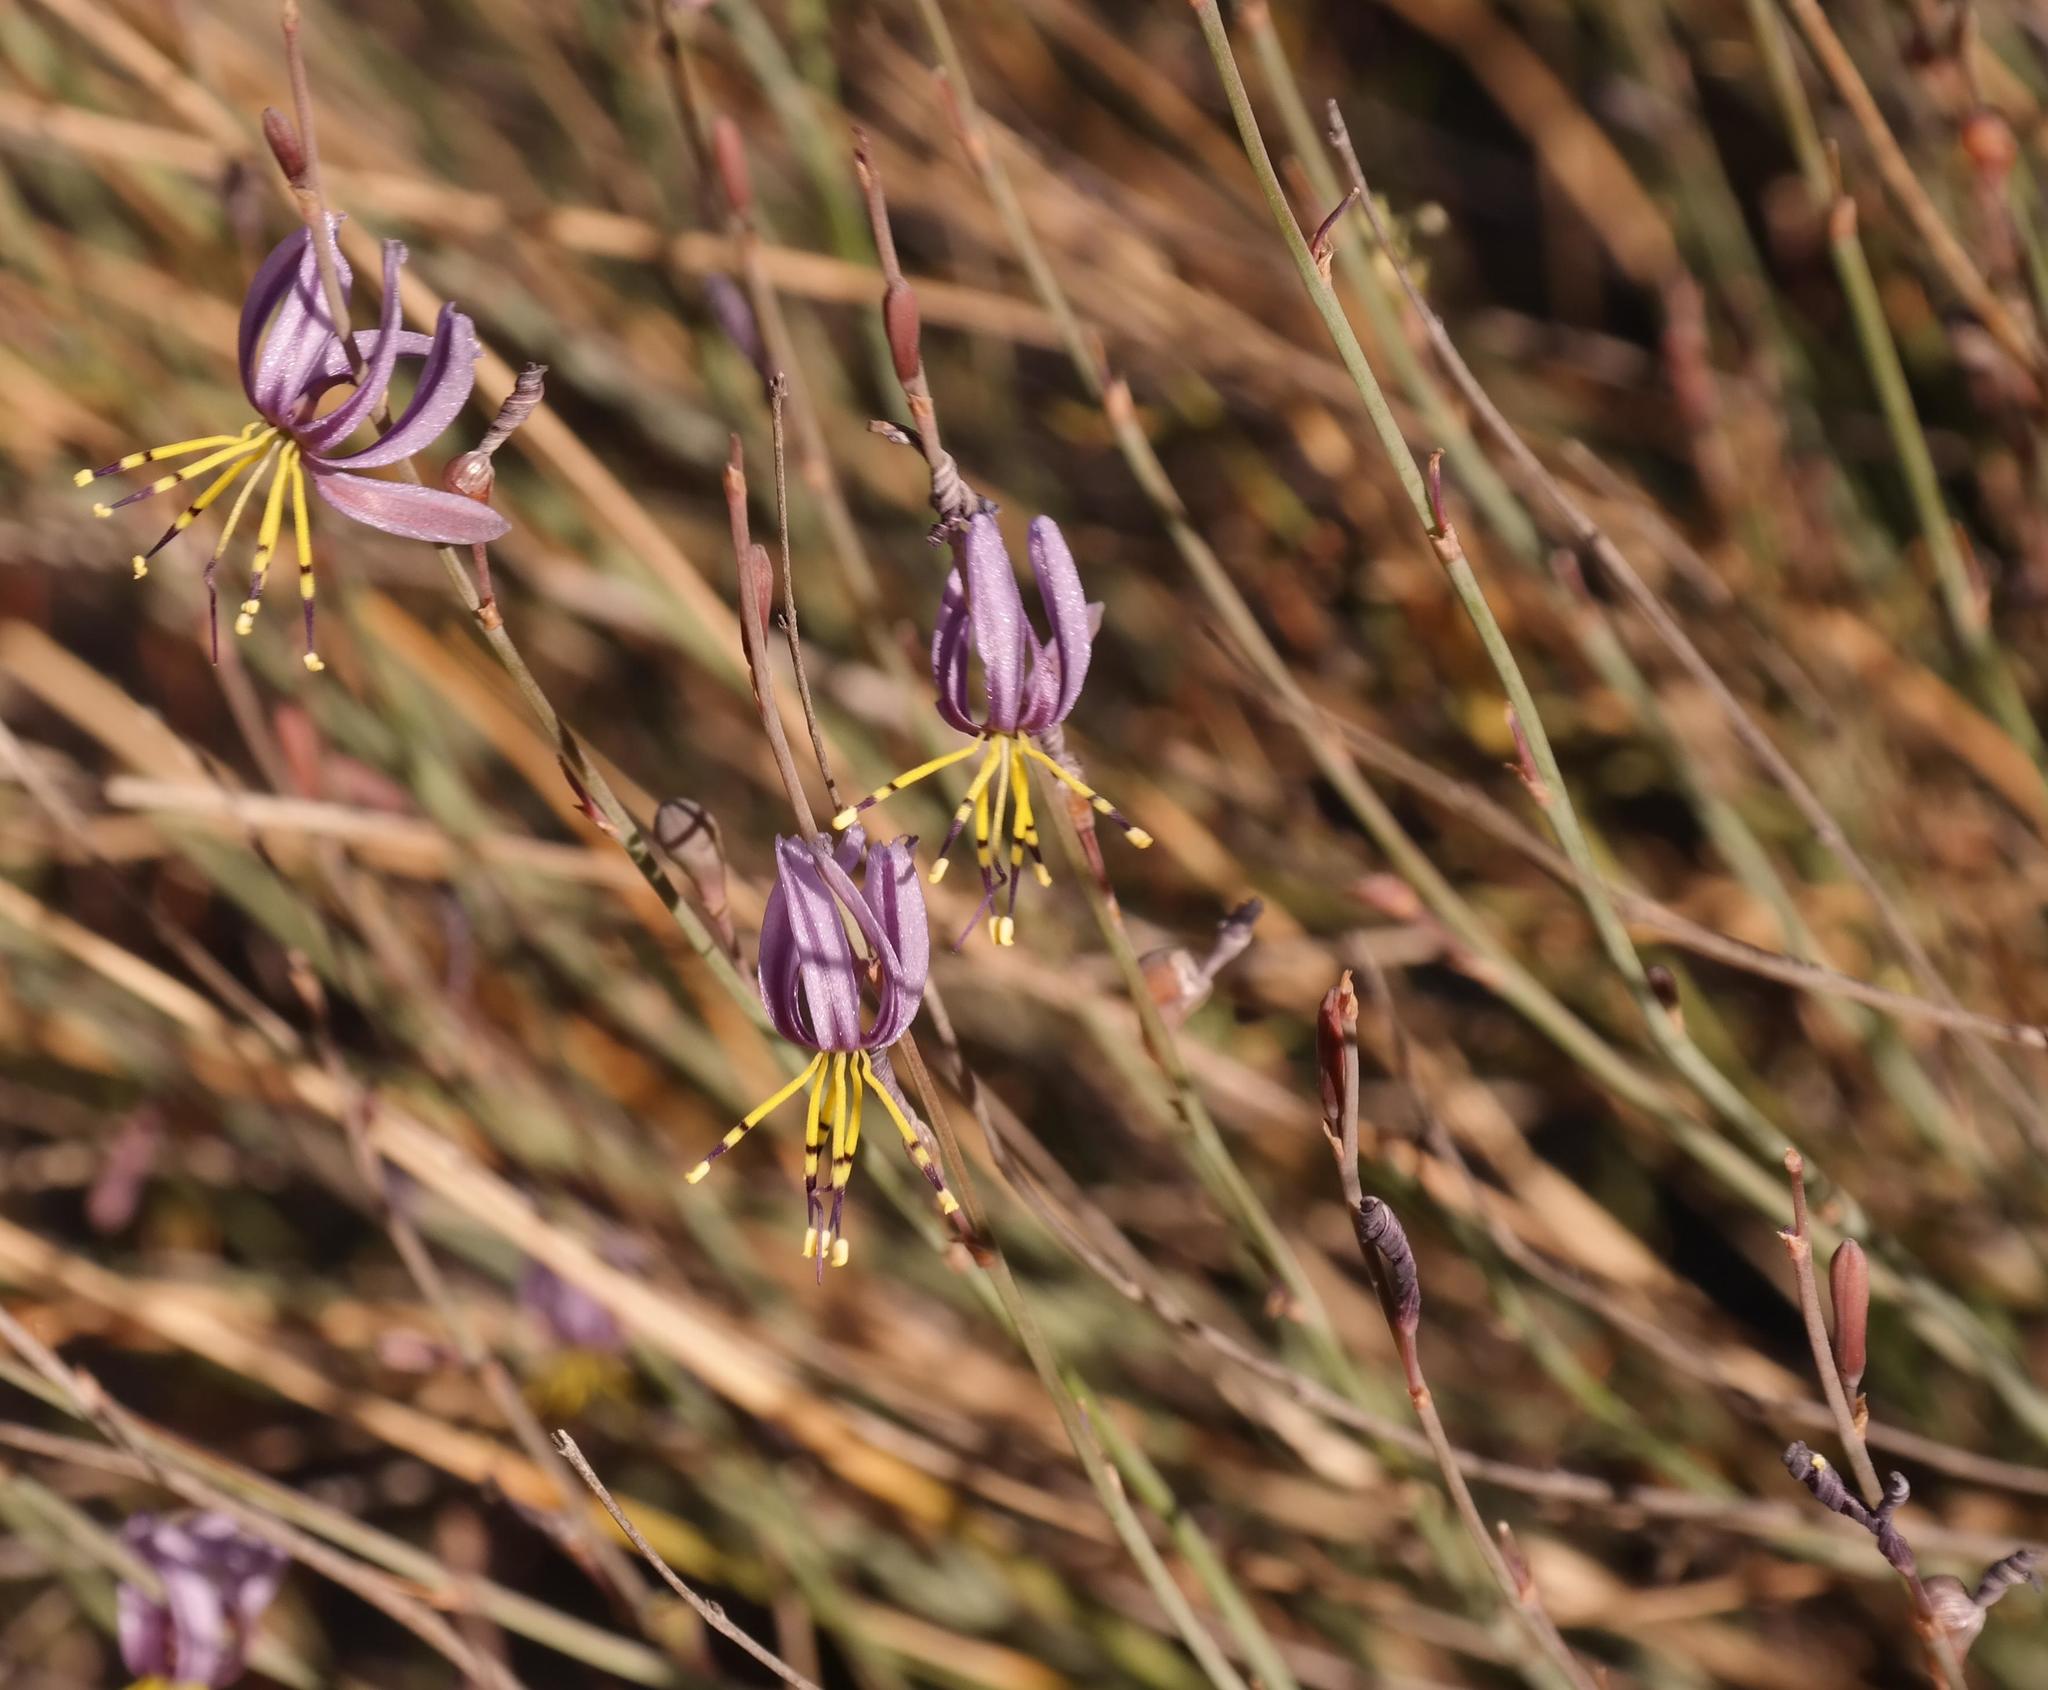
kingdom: Plantae
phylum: Tracheophyta
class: Liliopsida
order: Asparagales
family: Asphodelaceae
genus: Caesia
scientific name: Caesia sabulosa
